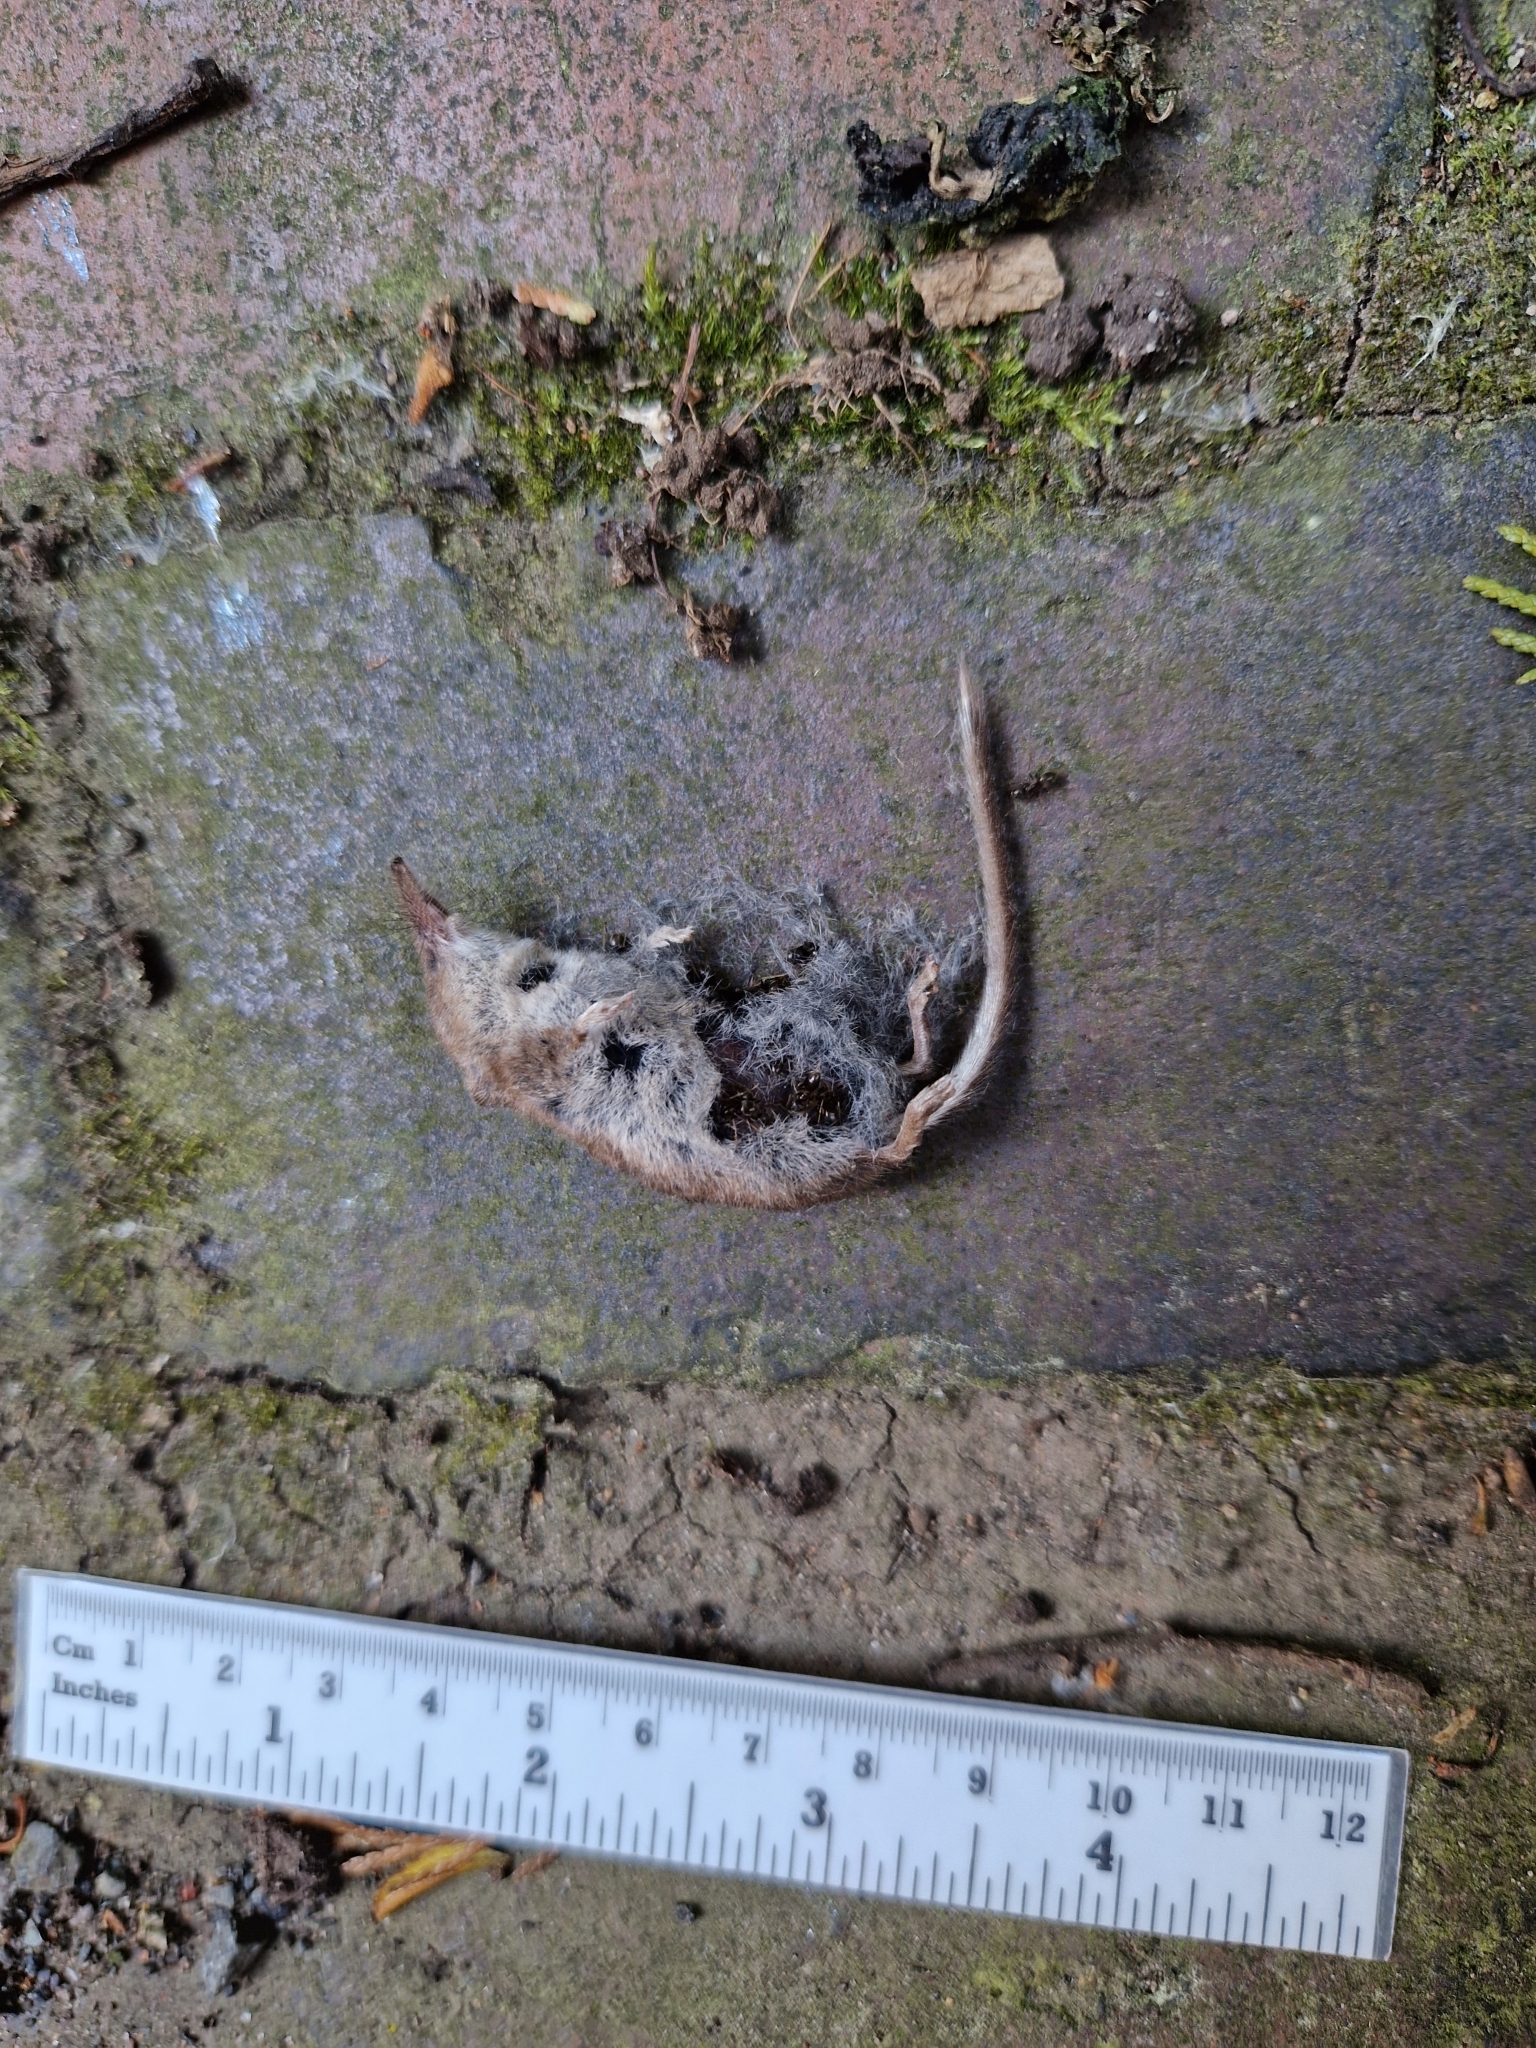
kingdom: Animalia
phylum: Chordata
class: Mammalia
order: Soricomorpha
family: Soricidae
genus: Sorex
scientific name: Sorex araneus
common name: Common shrew
